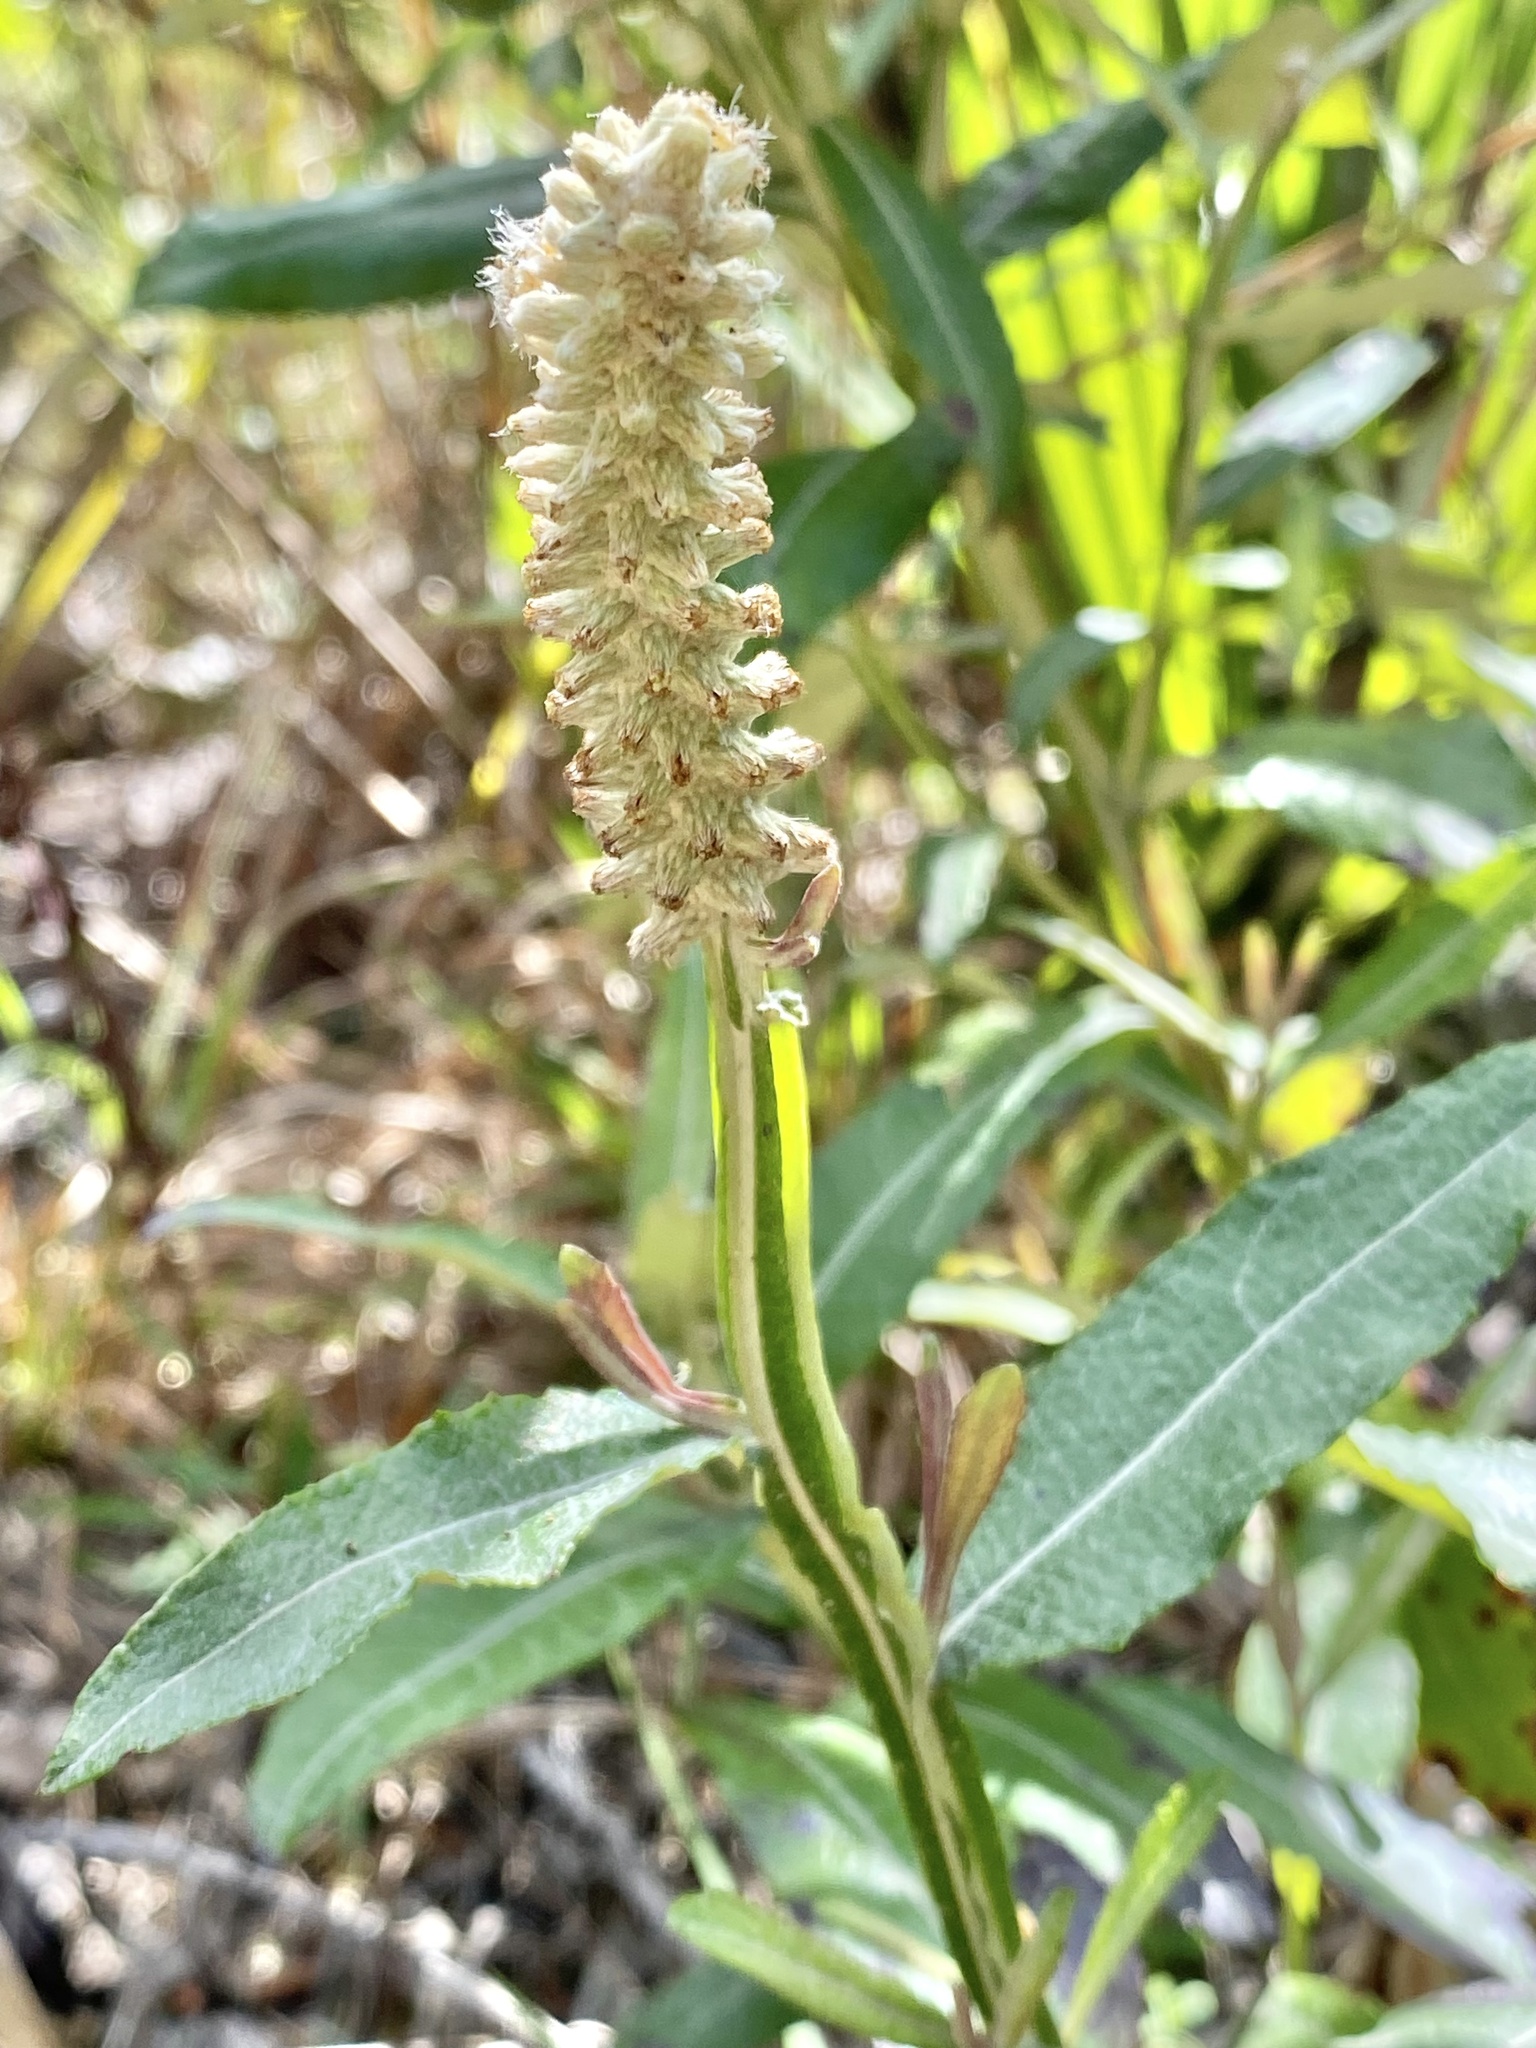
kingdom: Plantae
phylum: Tracheophyta
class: Magnoliopsida
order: Asterales
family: Asteraceae
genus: Pterocaulon
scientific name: Pterocaulon pycnostachyum
